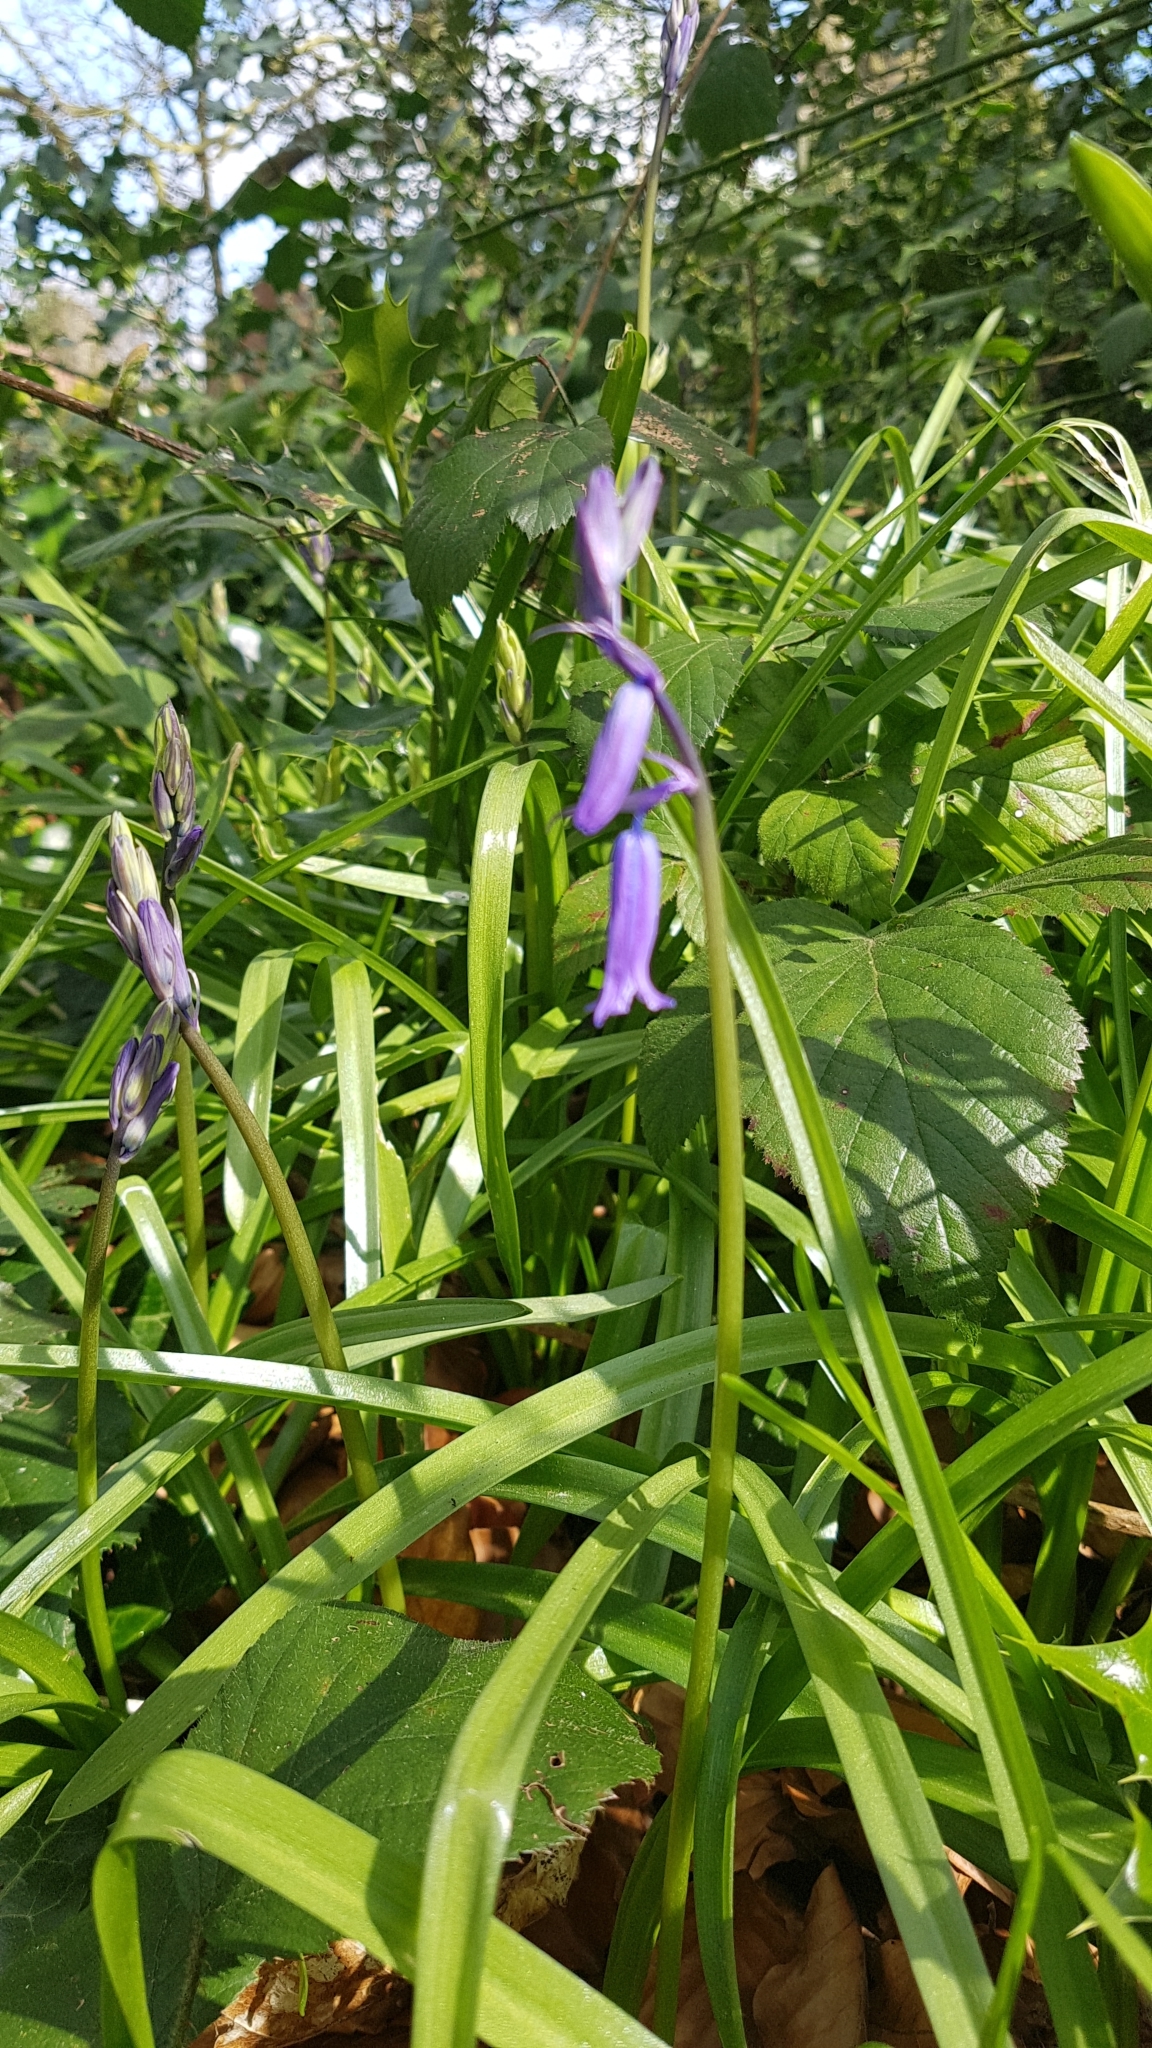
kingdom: Plantae
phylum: Tracheophyta
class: Liliopsida
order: Asparagales
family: Asparagaceae
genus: Hyacinthoides
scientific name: Hyacinthoides non-scripta
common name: Bluebell
